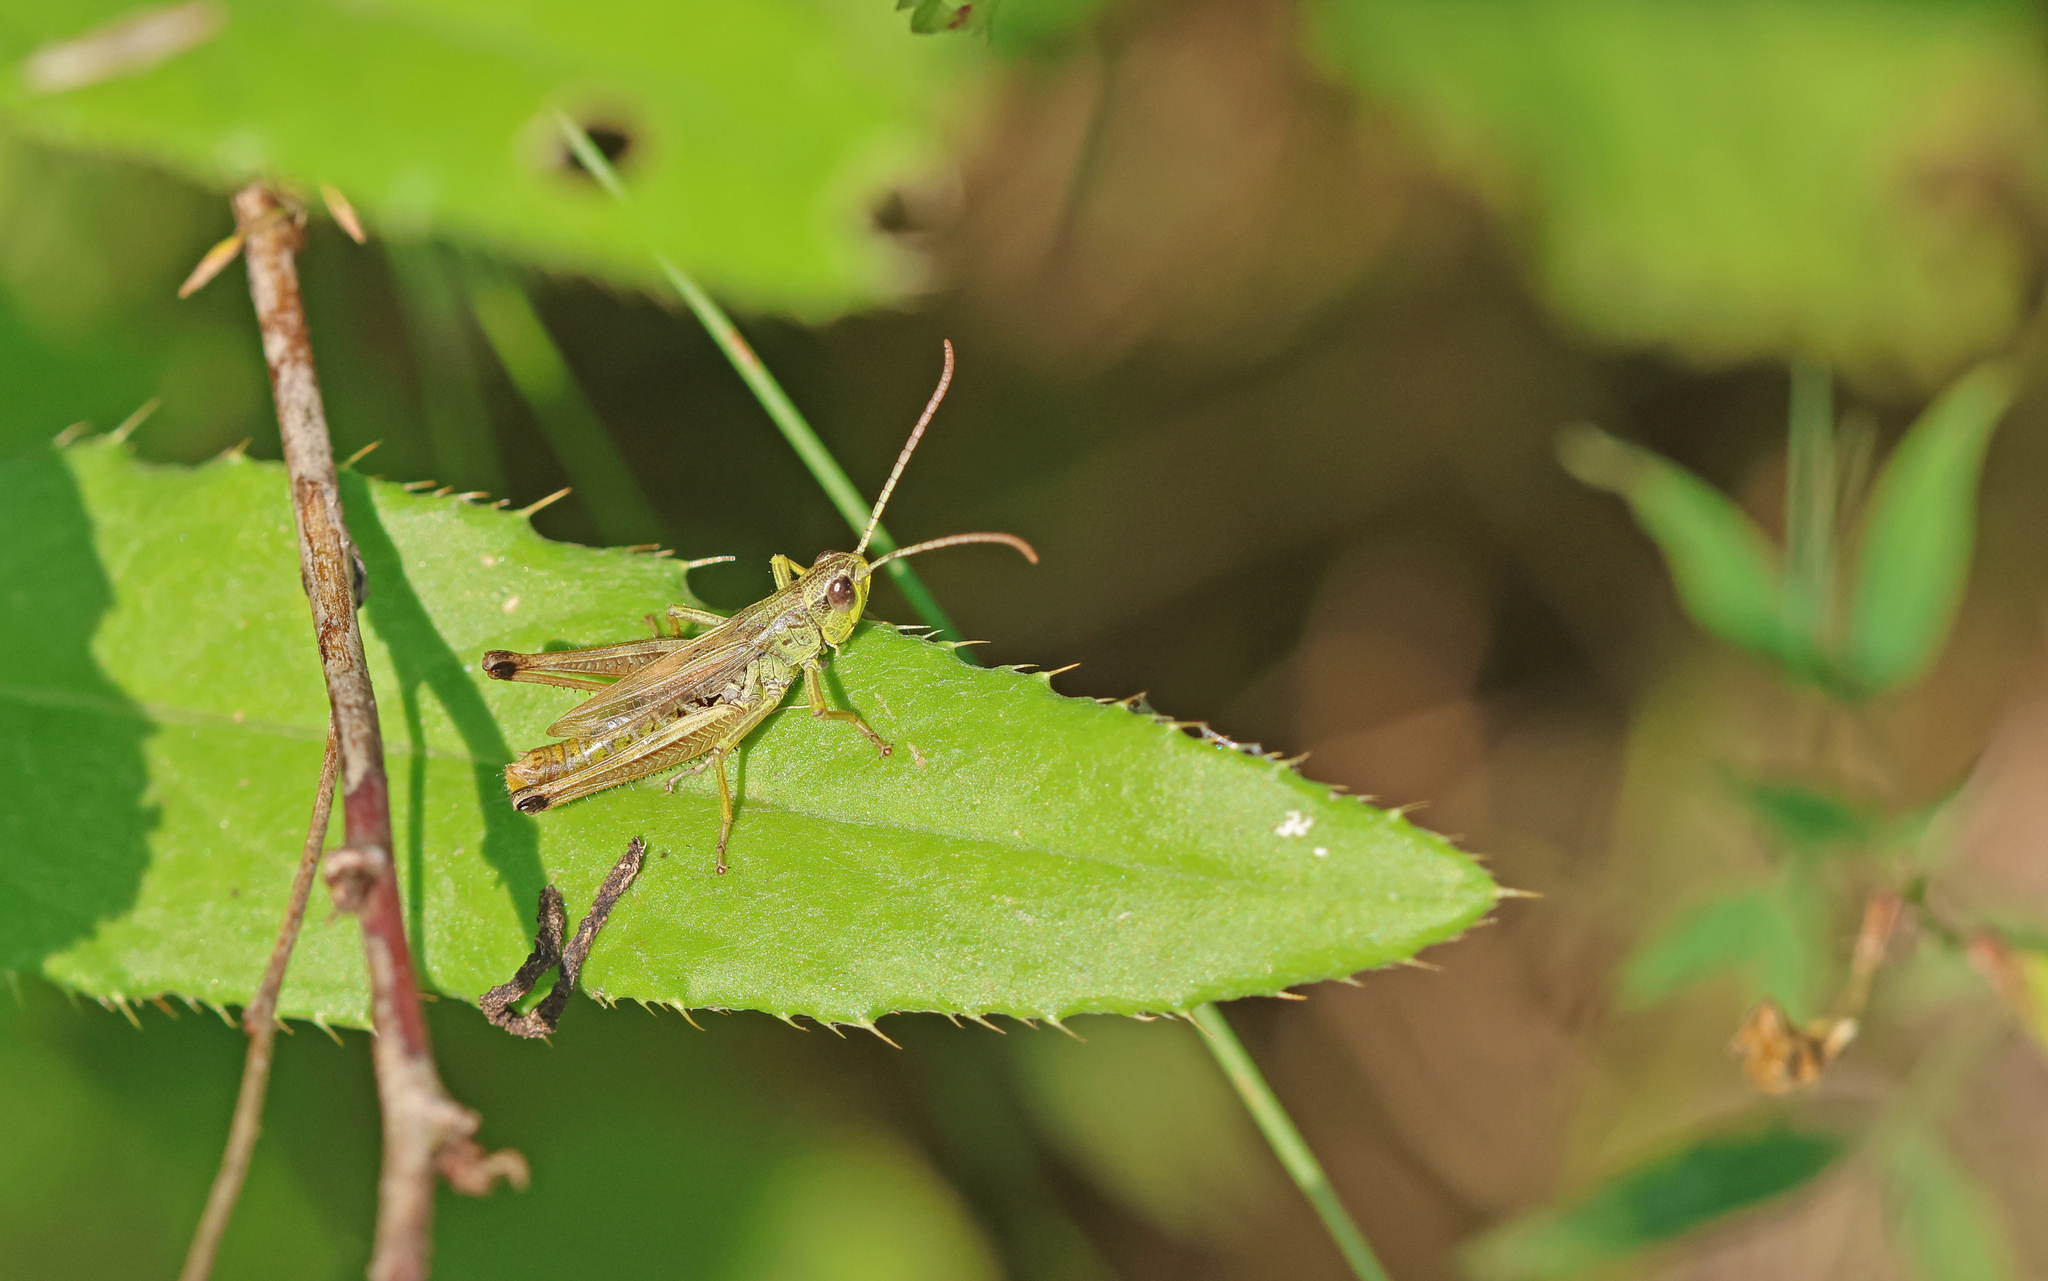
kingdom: Animalia
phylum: Arthropoda
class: Insecta
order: Orthoptera
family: Acrididae
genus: Pseudochorthippus
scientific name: Pseudochorthippus parallelus
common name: Meadow grasshopper
